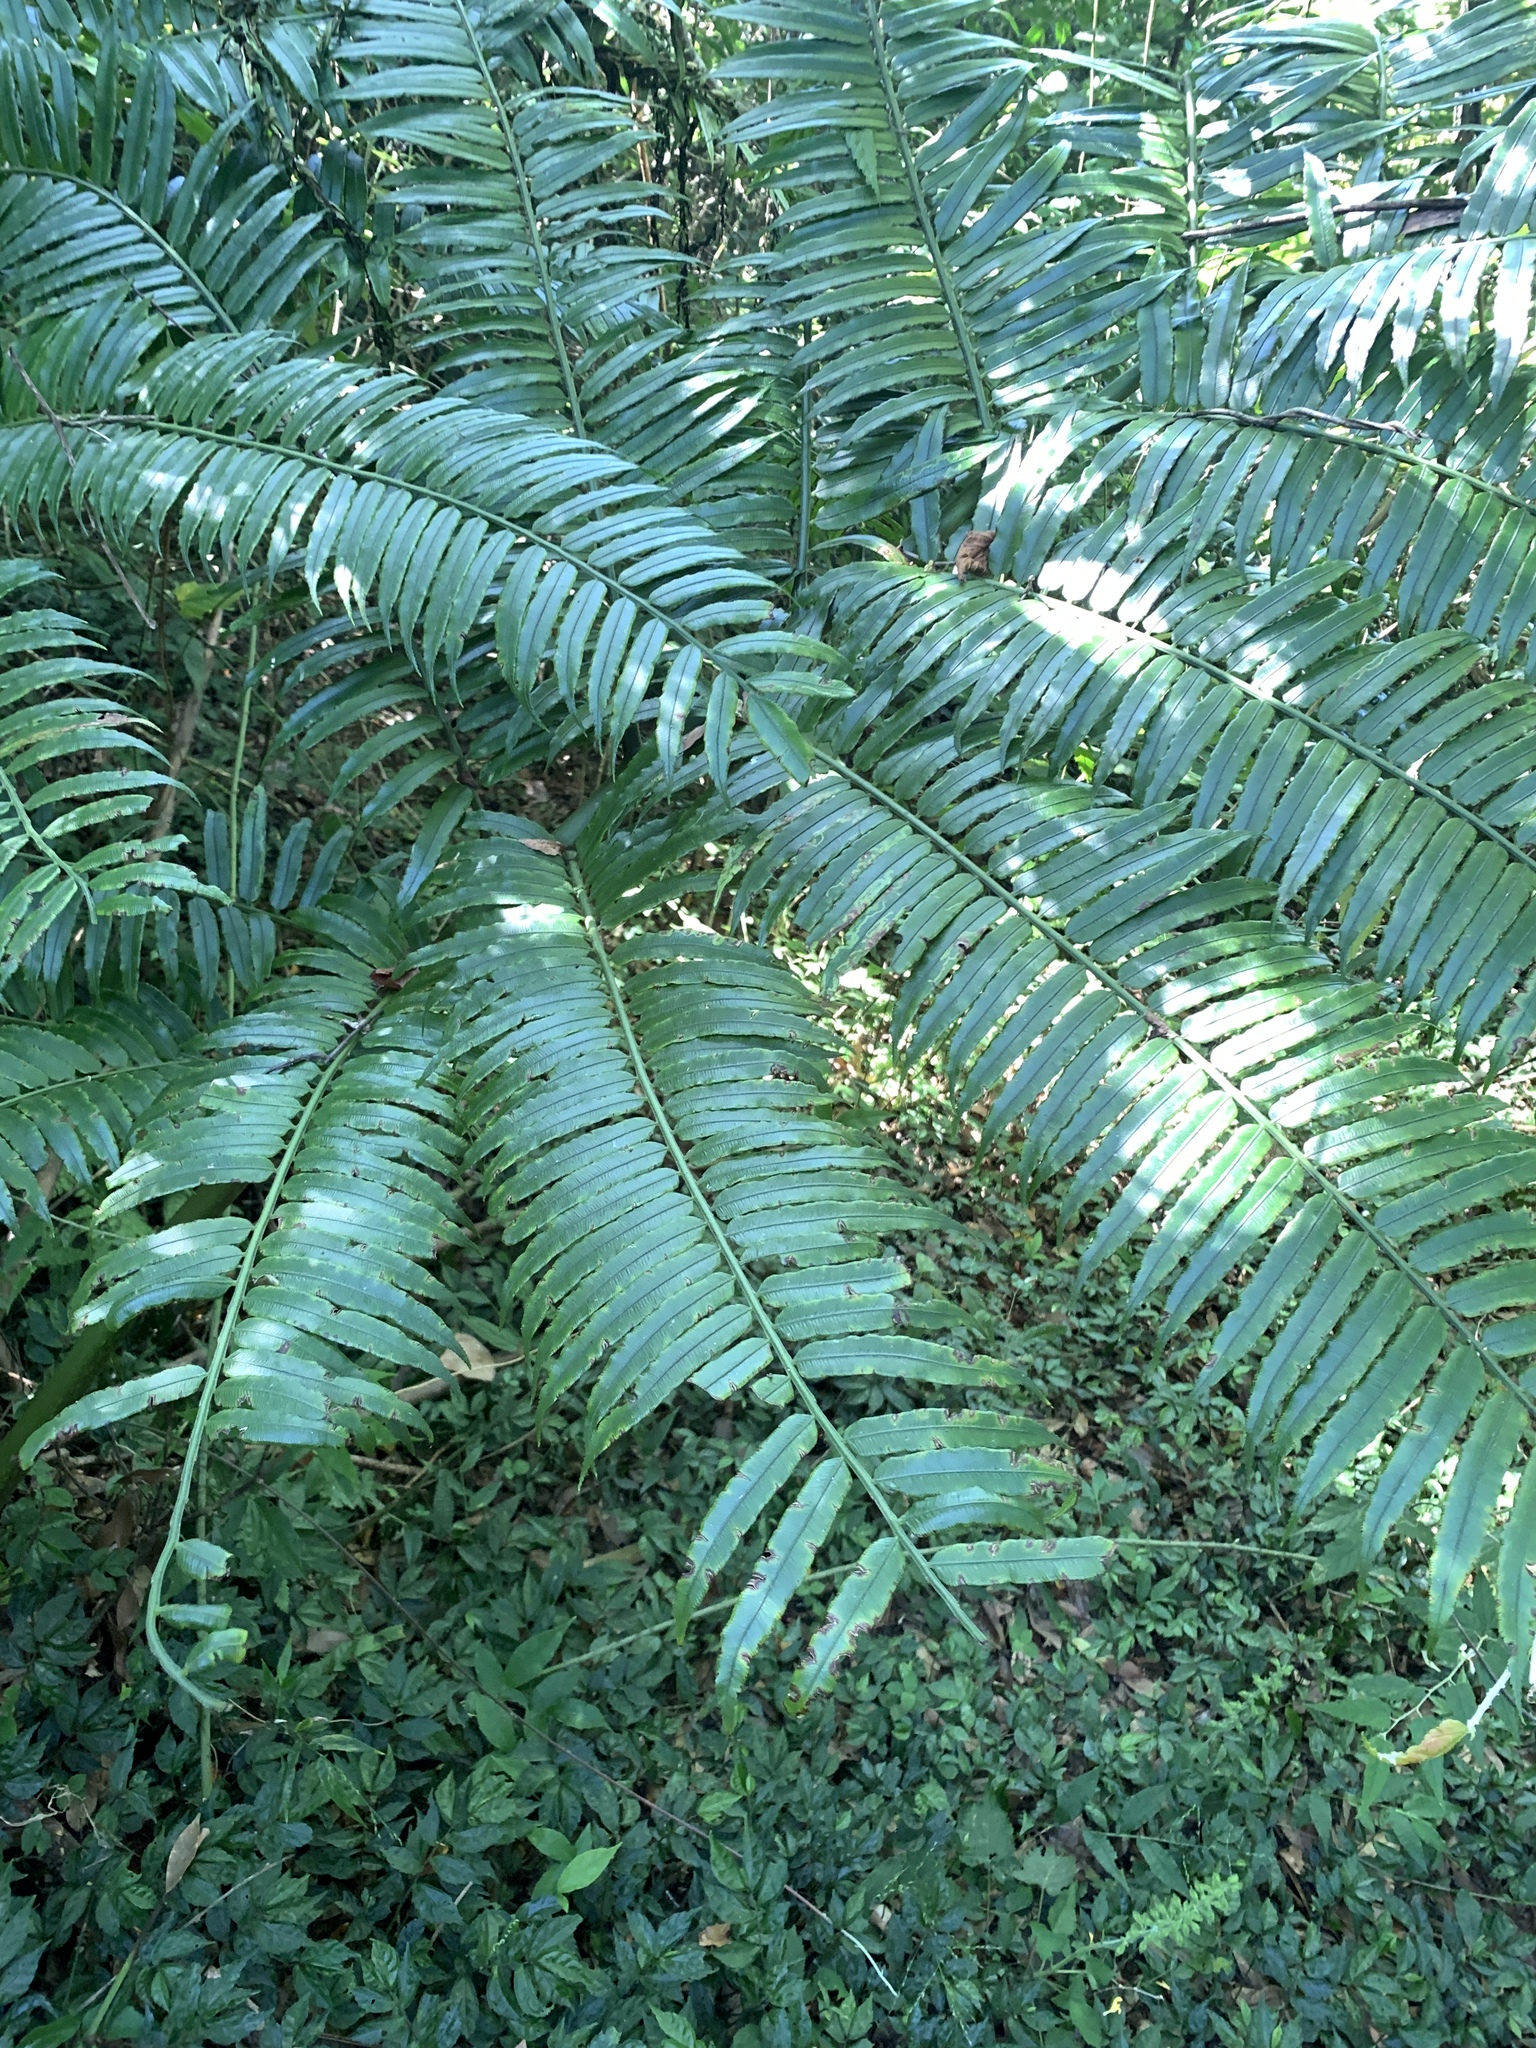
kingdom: Plantae
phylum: Tracheophyta
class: Polypodiopsida
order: Marattiales
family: Marattiaceae
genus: Angiopteris
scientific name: Angiopteris lygodiifolia
